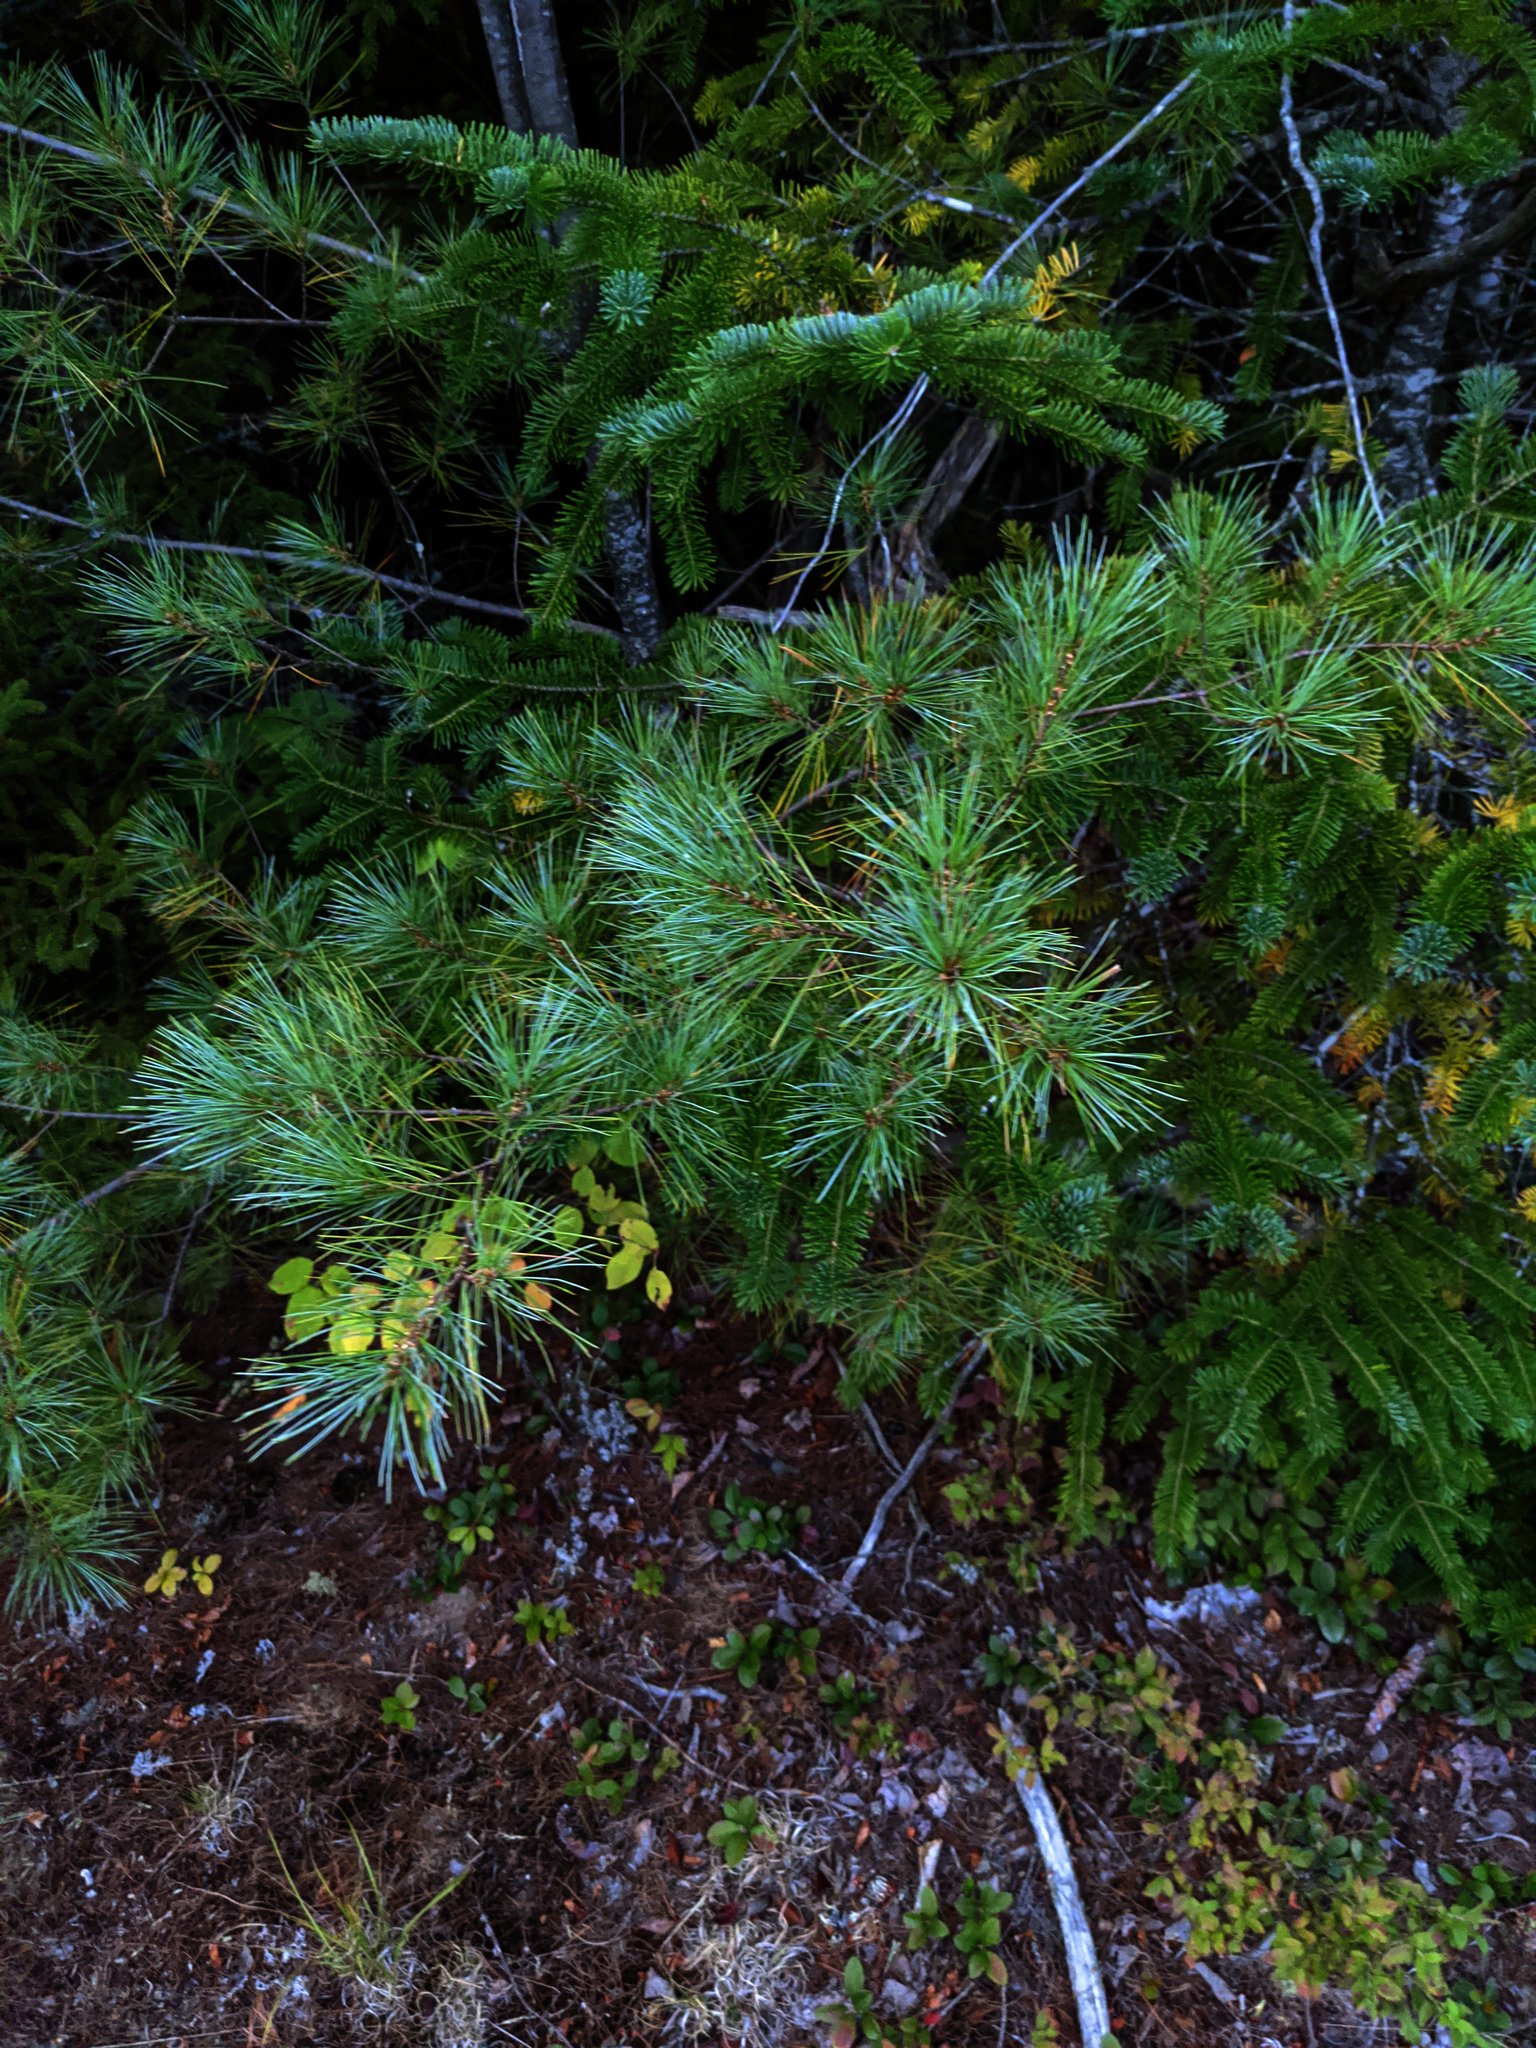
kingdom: Plantae
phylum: Tracheophyta
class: Pinopsida
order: Pinales
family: Pinaceae
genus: Pinus
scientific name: Pinus strobus
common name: Weymouth pine
